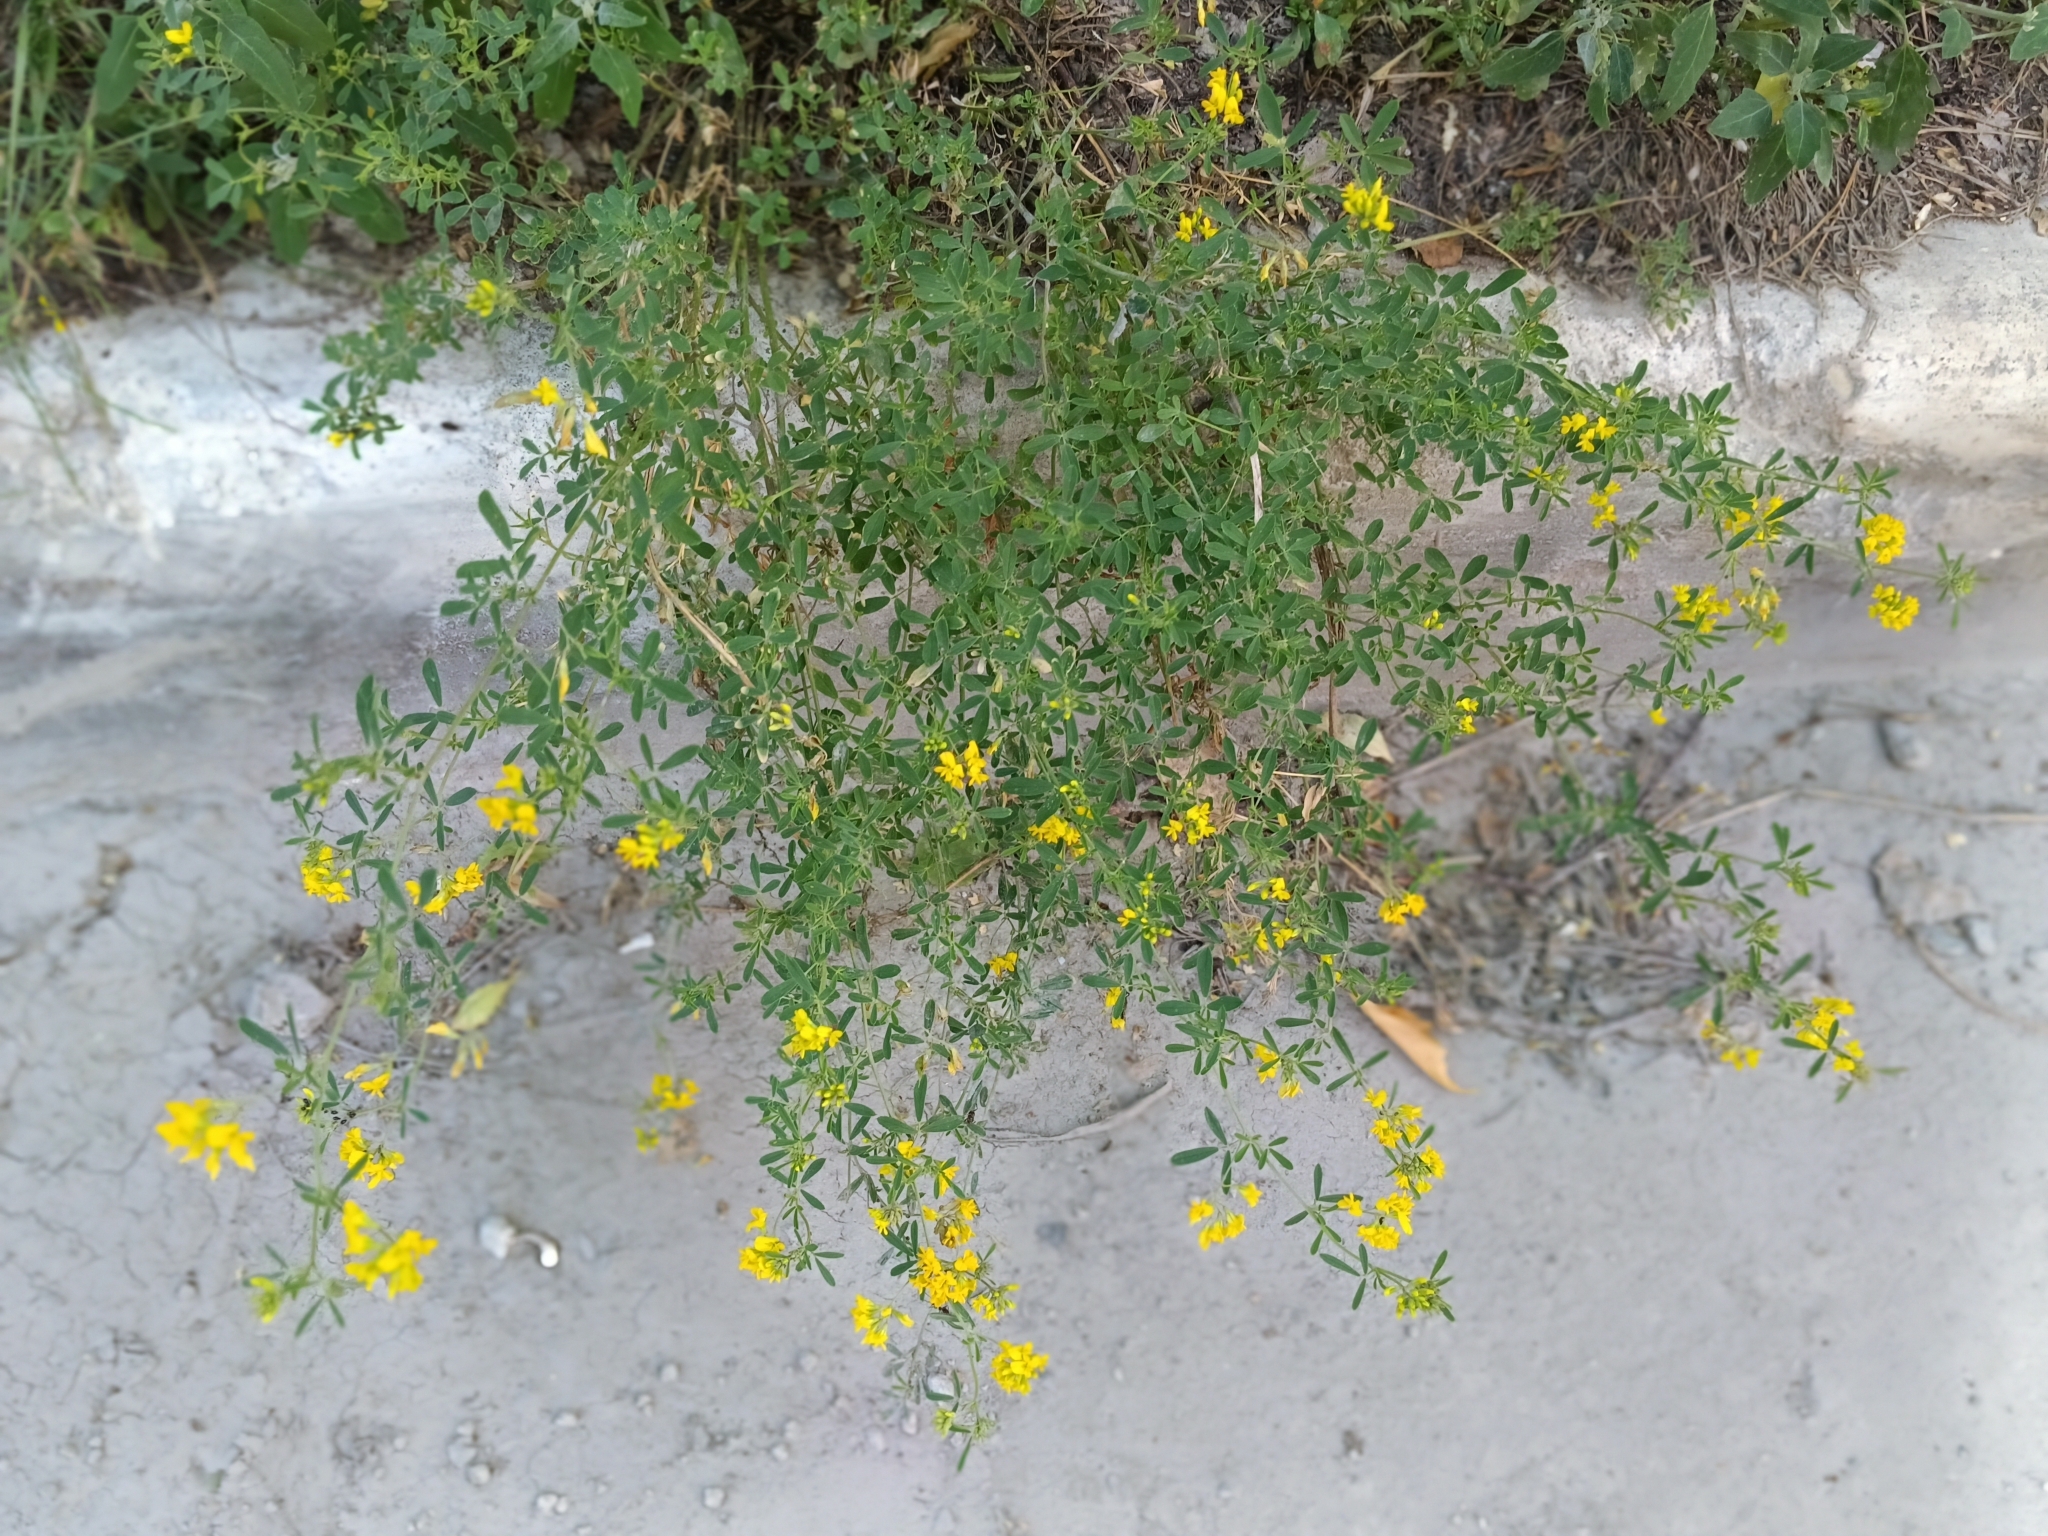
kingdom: Plantae
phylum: Tracheophyta
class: Magnoliopsida
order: Fabales
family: Fabaceae
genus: Medicago
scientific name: Medicago falcata
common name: Sickle medick
